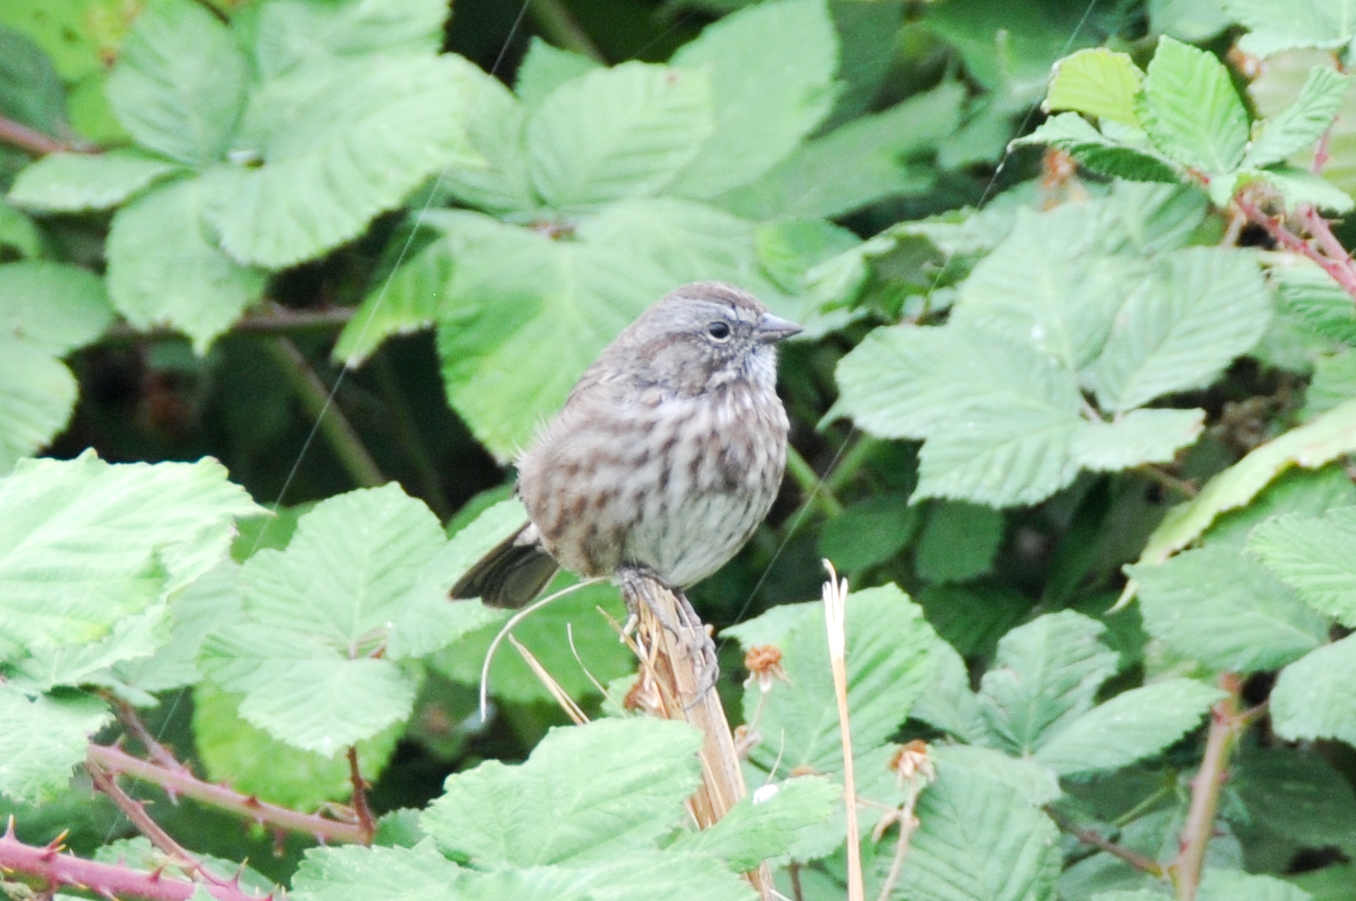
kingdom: Animalia
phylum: Chordata
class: Aves
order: Passeriformes
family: Passerellidae
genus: Melospiza
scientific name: Melospiza melodia
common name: Song sparrow
